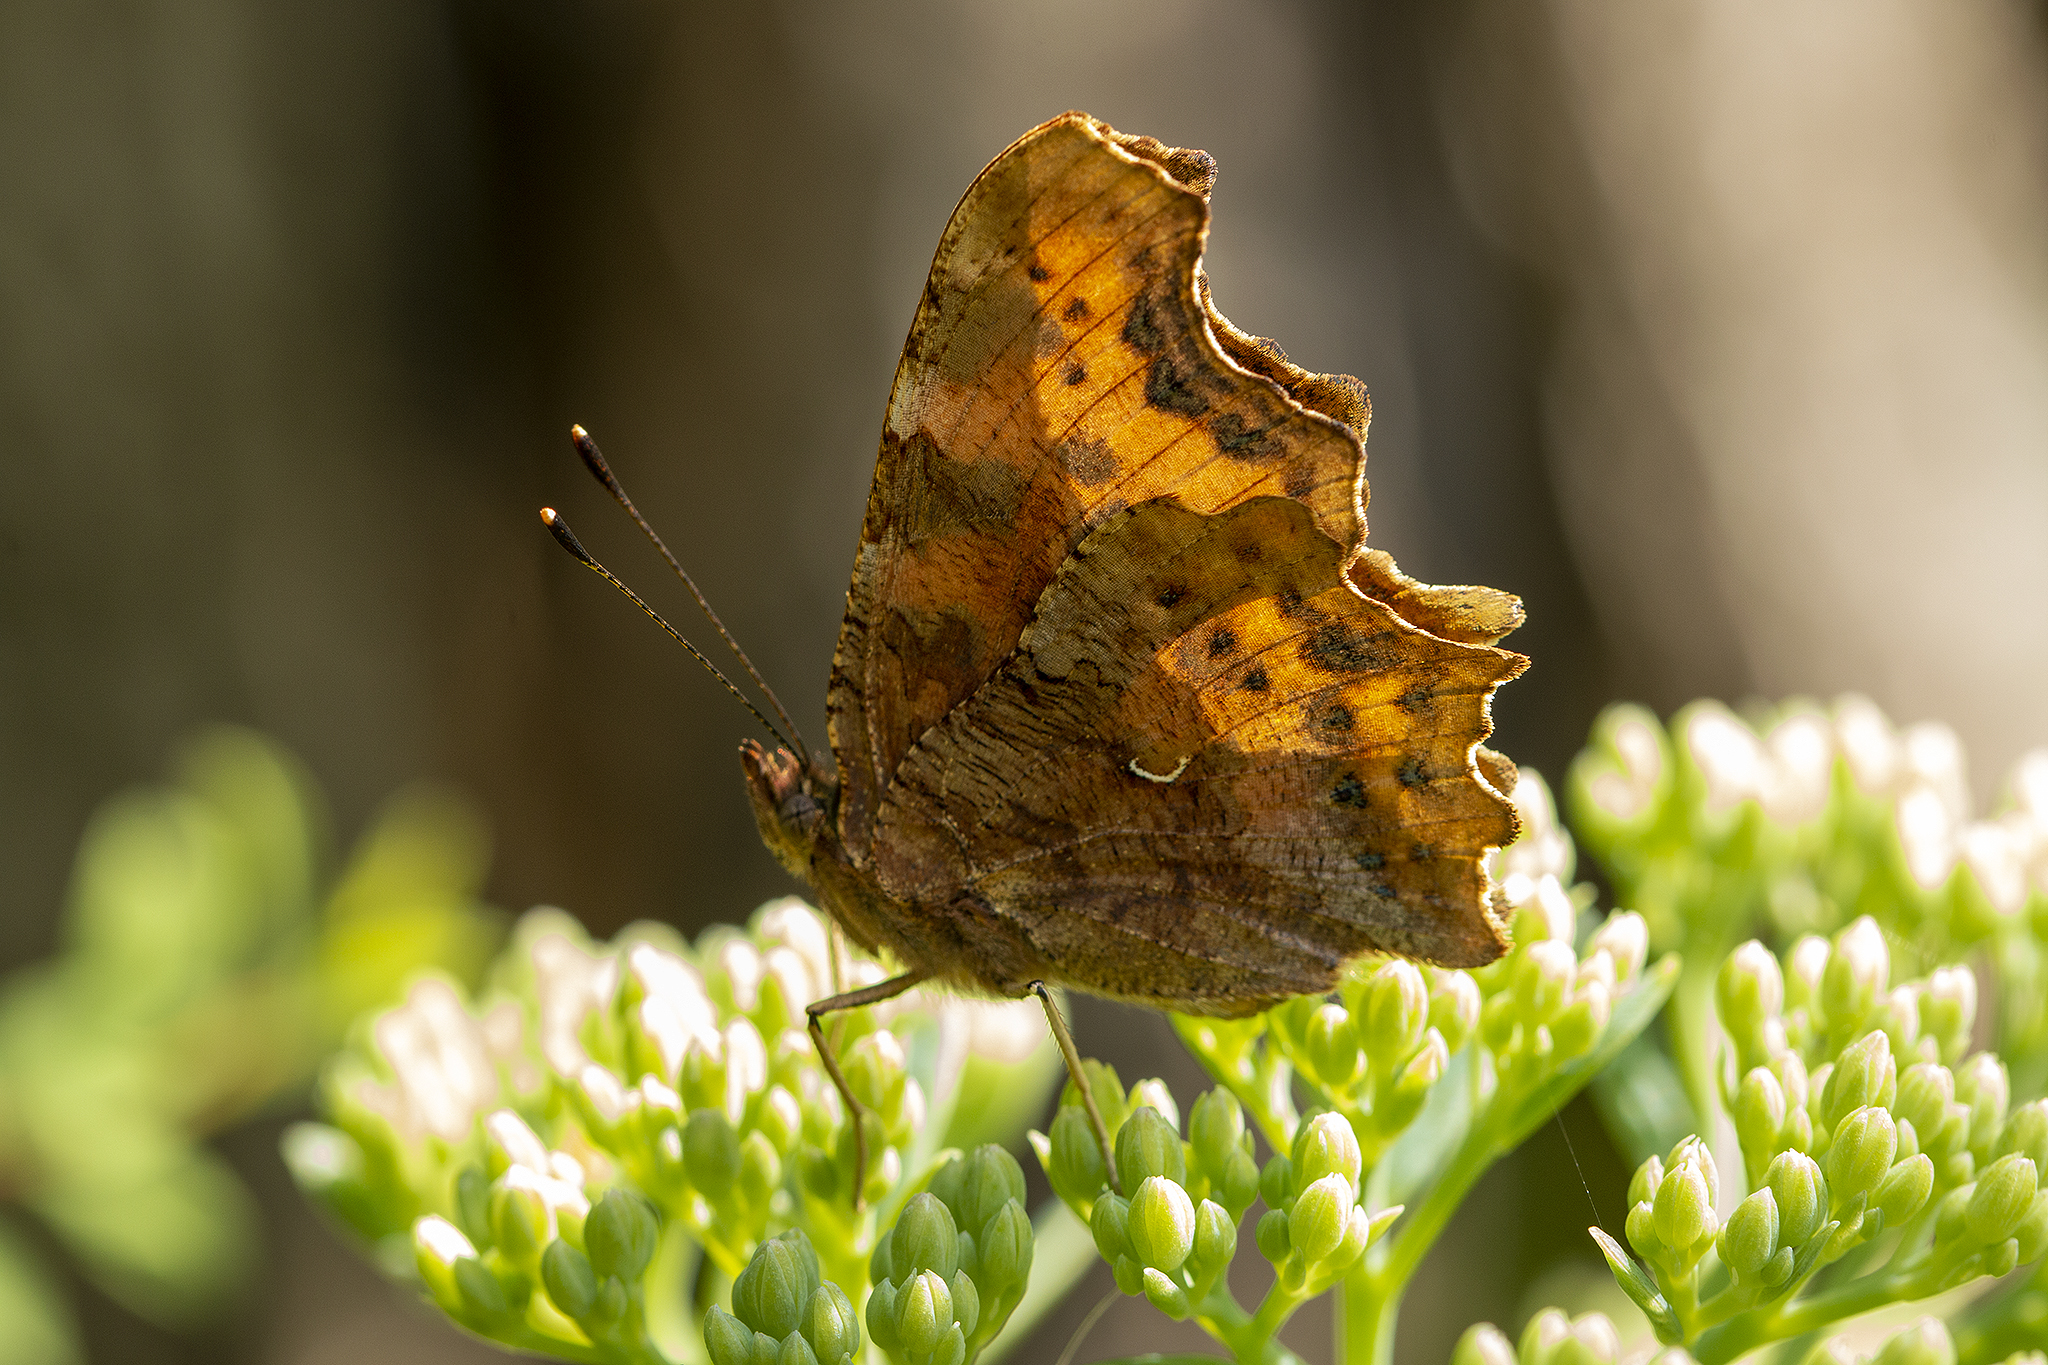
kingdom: Animalia
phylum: Arthropoda
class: Insecta
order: Lepidoptera
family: Nymphalidae
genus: Polygonia
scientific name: Polygonia c-album
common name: Comma
